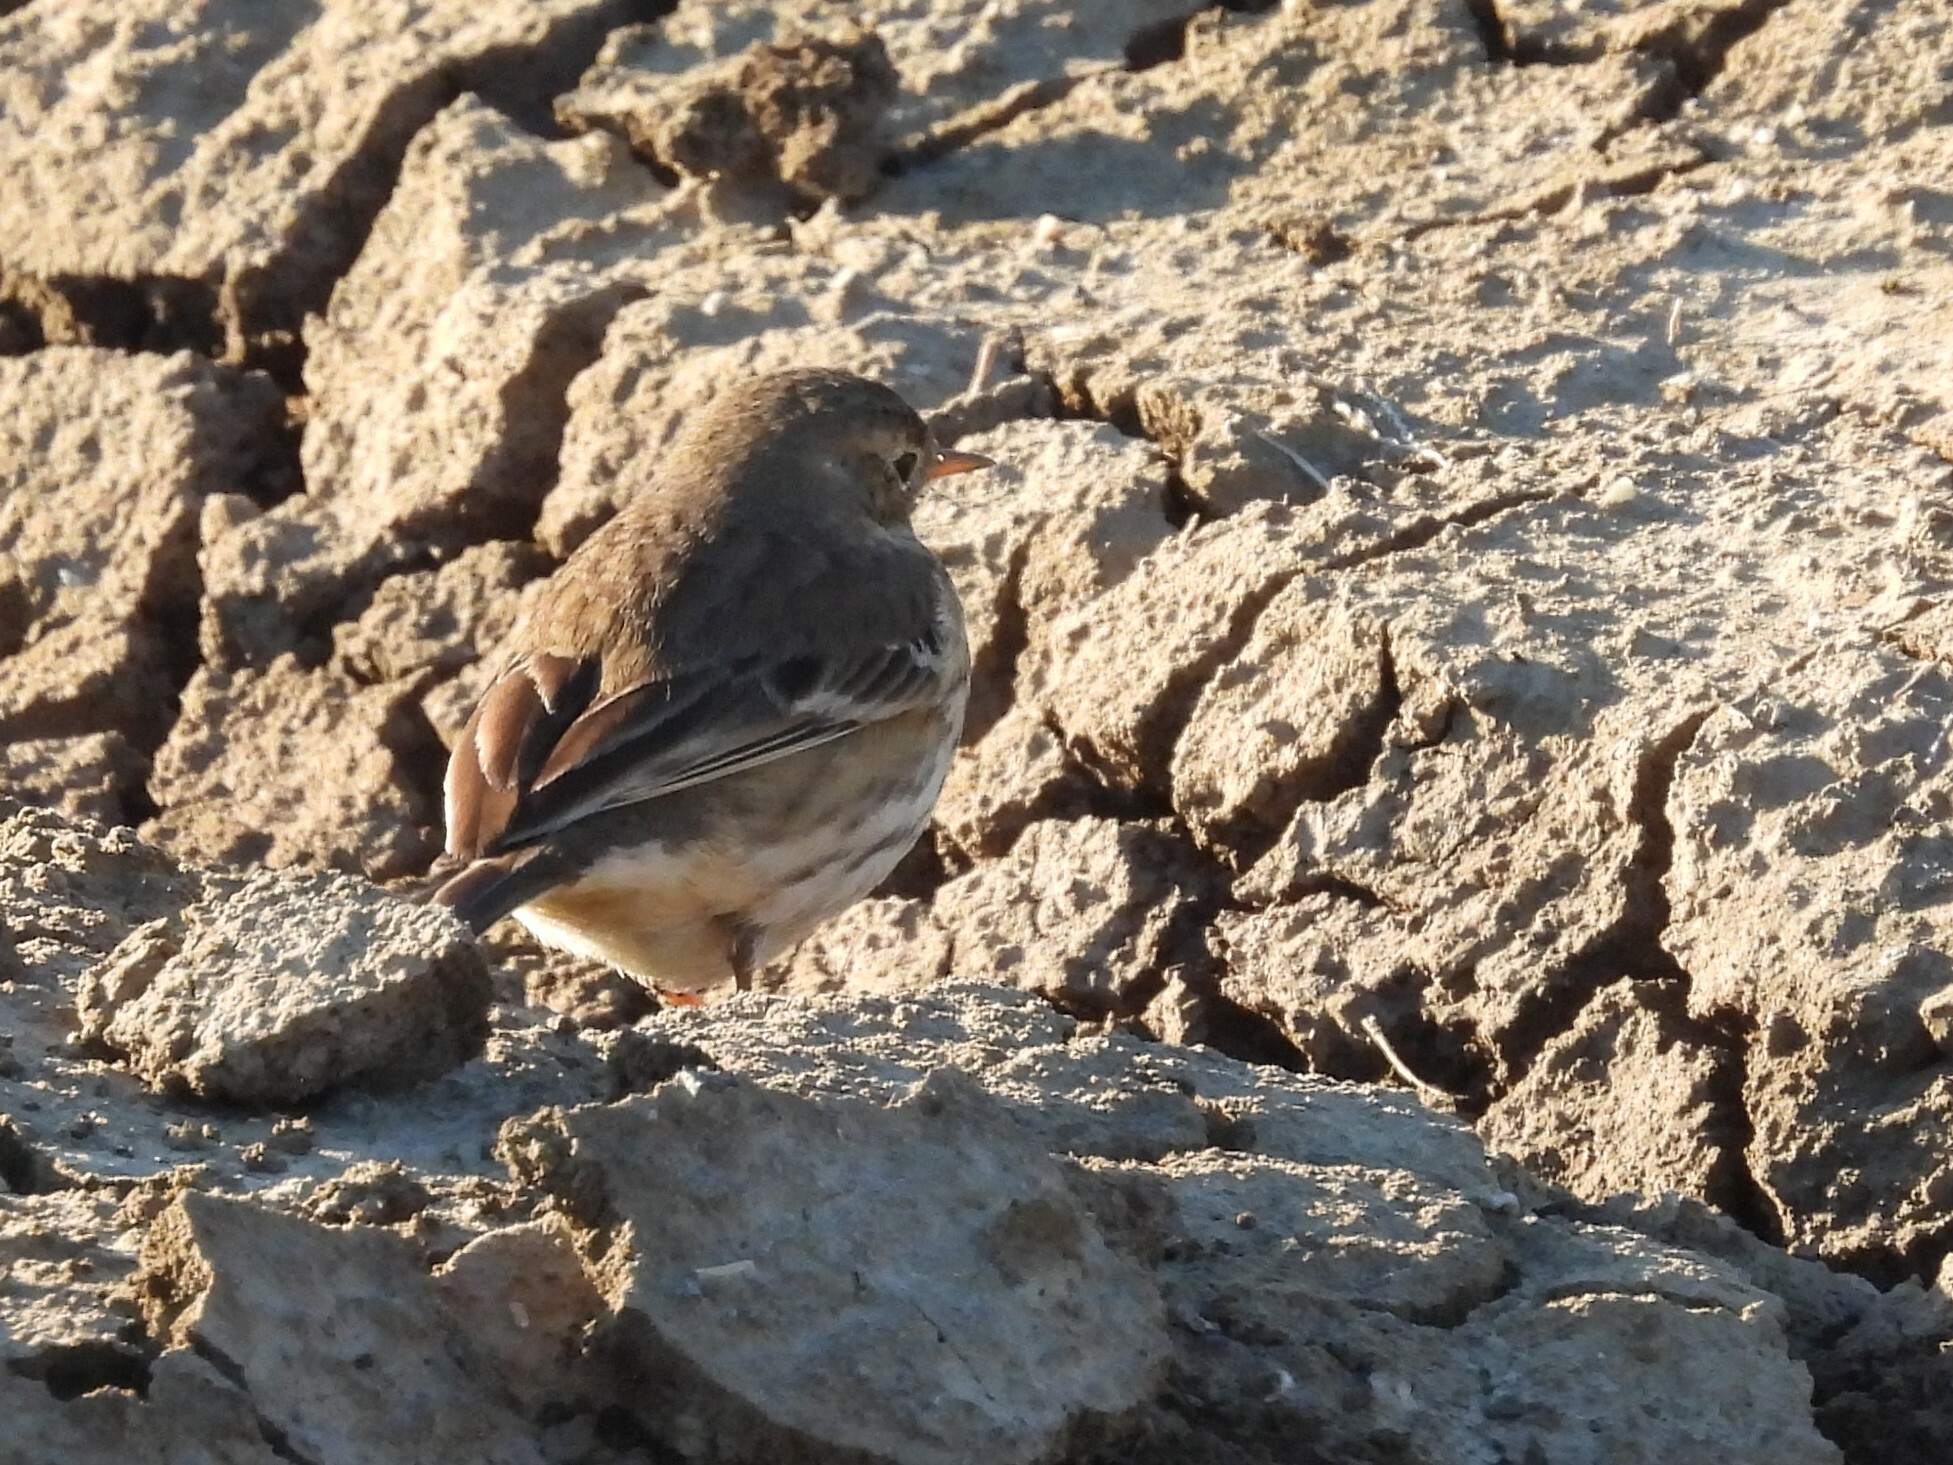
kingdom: Animalia
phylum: Chordata
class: Aves
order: Passeriformes
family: Motacillidae
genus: Anthus
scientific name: Anthus rubescens
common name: Buff-bellied pipit
